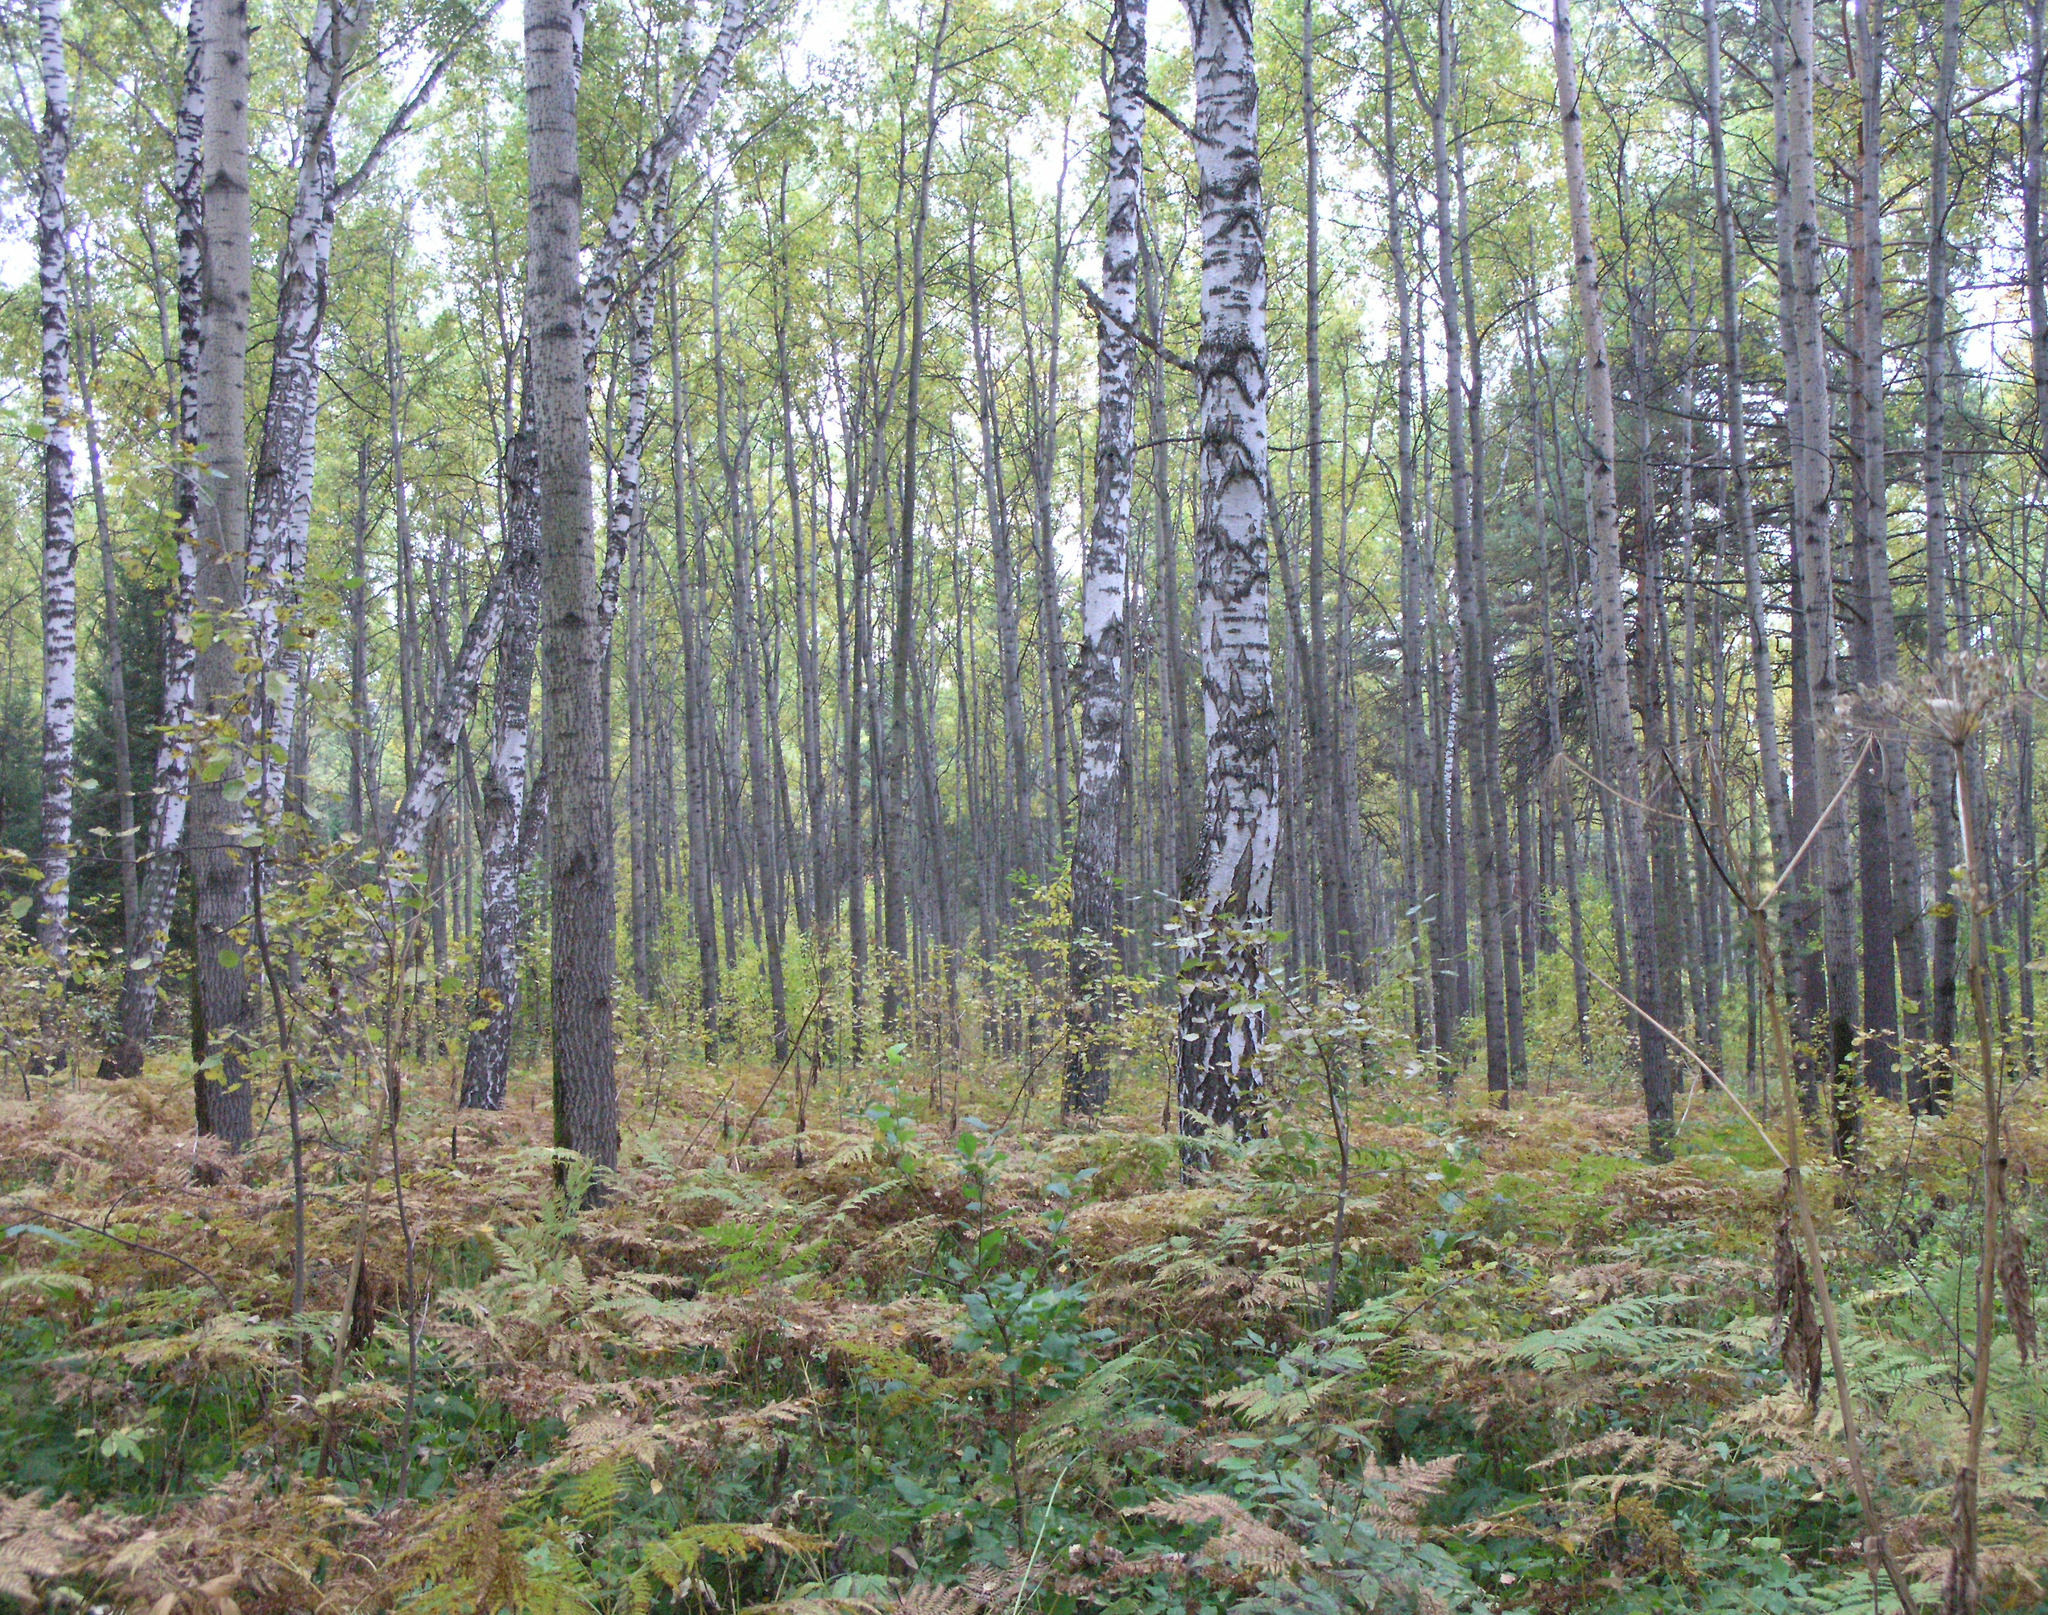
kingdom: Plantae
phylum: Tracheophyta
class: Magnoliopsida
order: Fagales
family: Betulaceae
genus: Betula
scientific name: Betula pendula
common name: Silver birch
